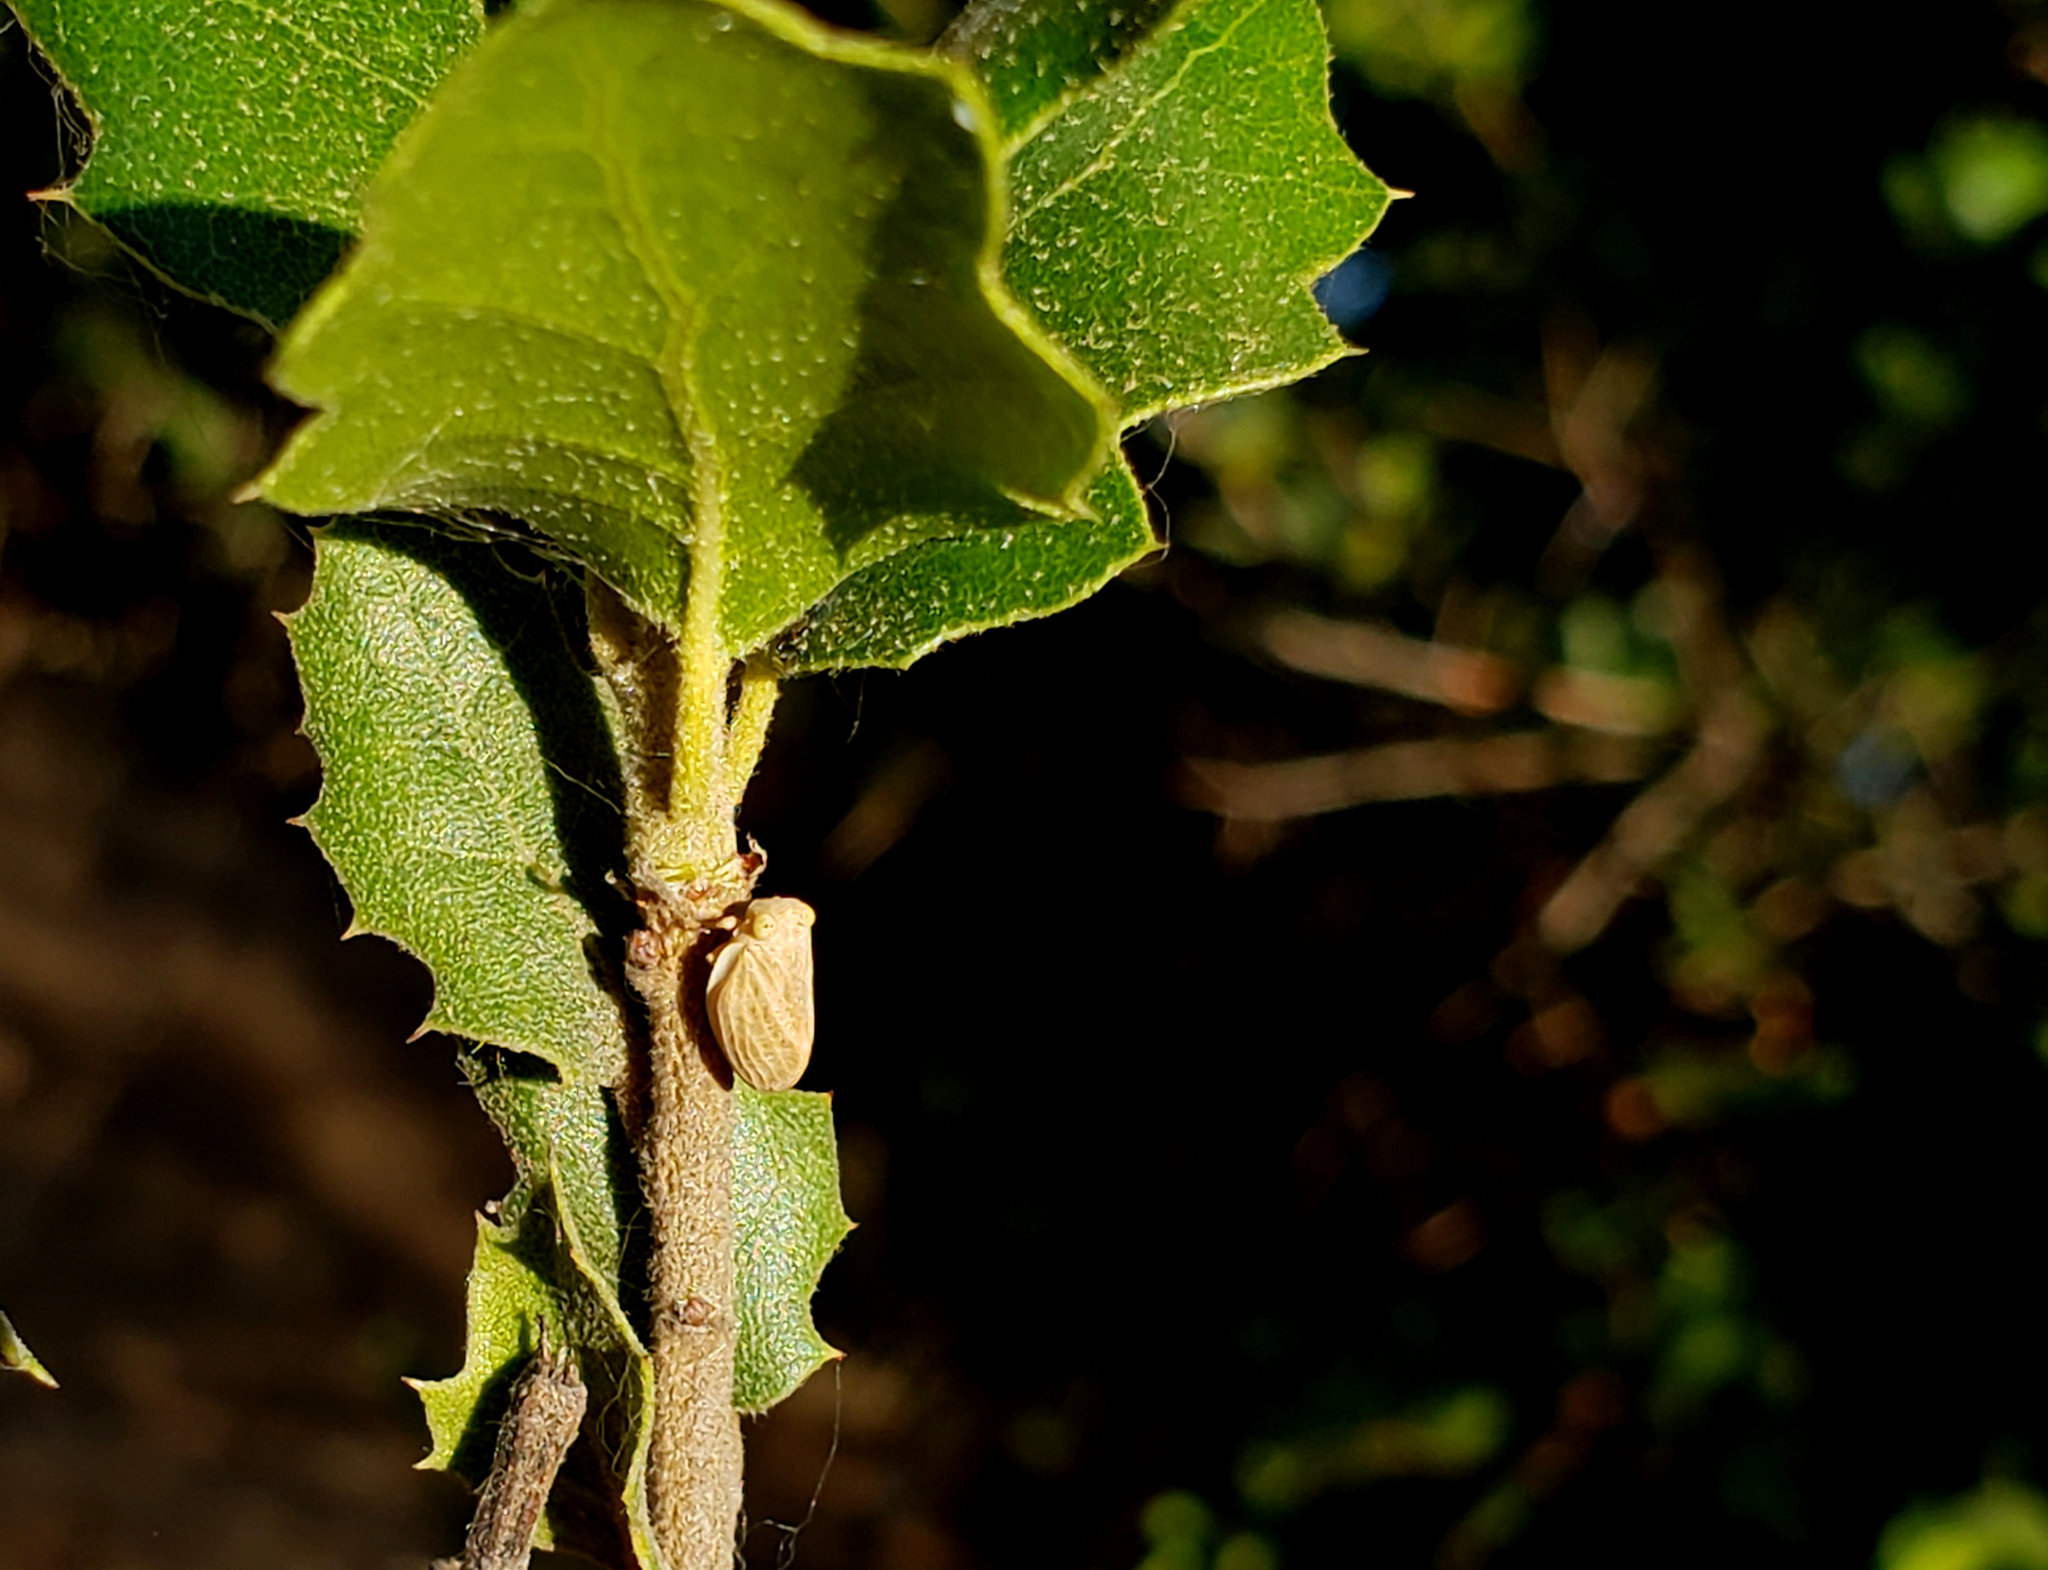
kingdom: Animalia
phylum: Arthropoda
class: Insecta
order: Hemiptera
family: Issidae
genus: Agalmatium
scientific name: Agalmatium bilobum
